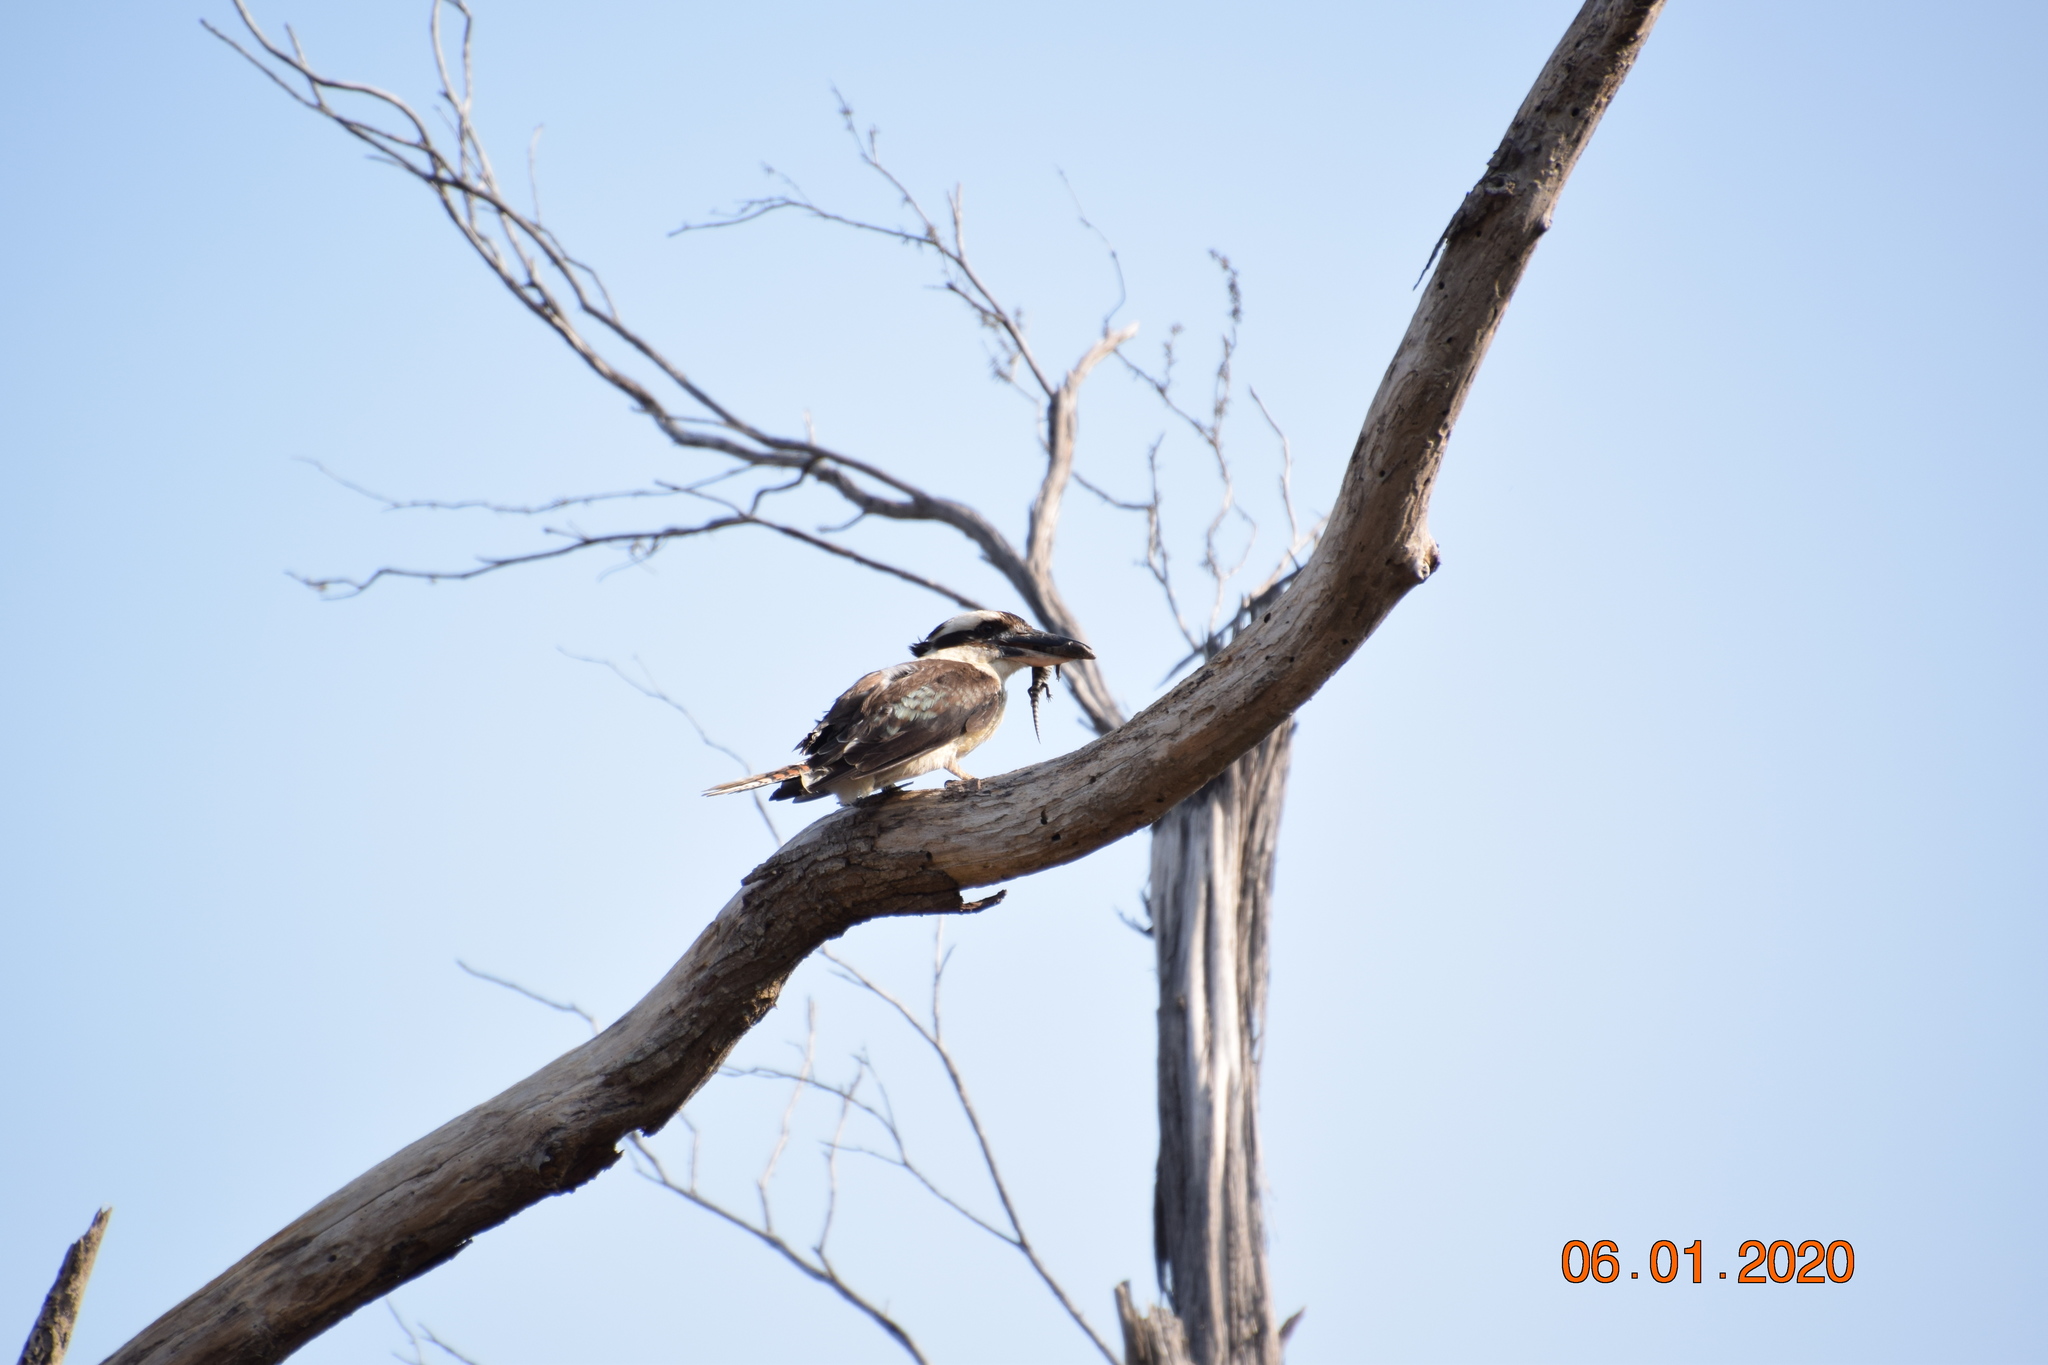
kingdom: Animalia
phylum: Chordata
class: Aves
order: Coraciiformes
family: Alcedinidae
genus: Dacelo
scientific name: Dacelo novaeguineae
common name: Laughing kookaburra
